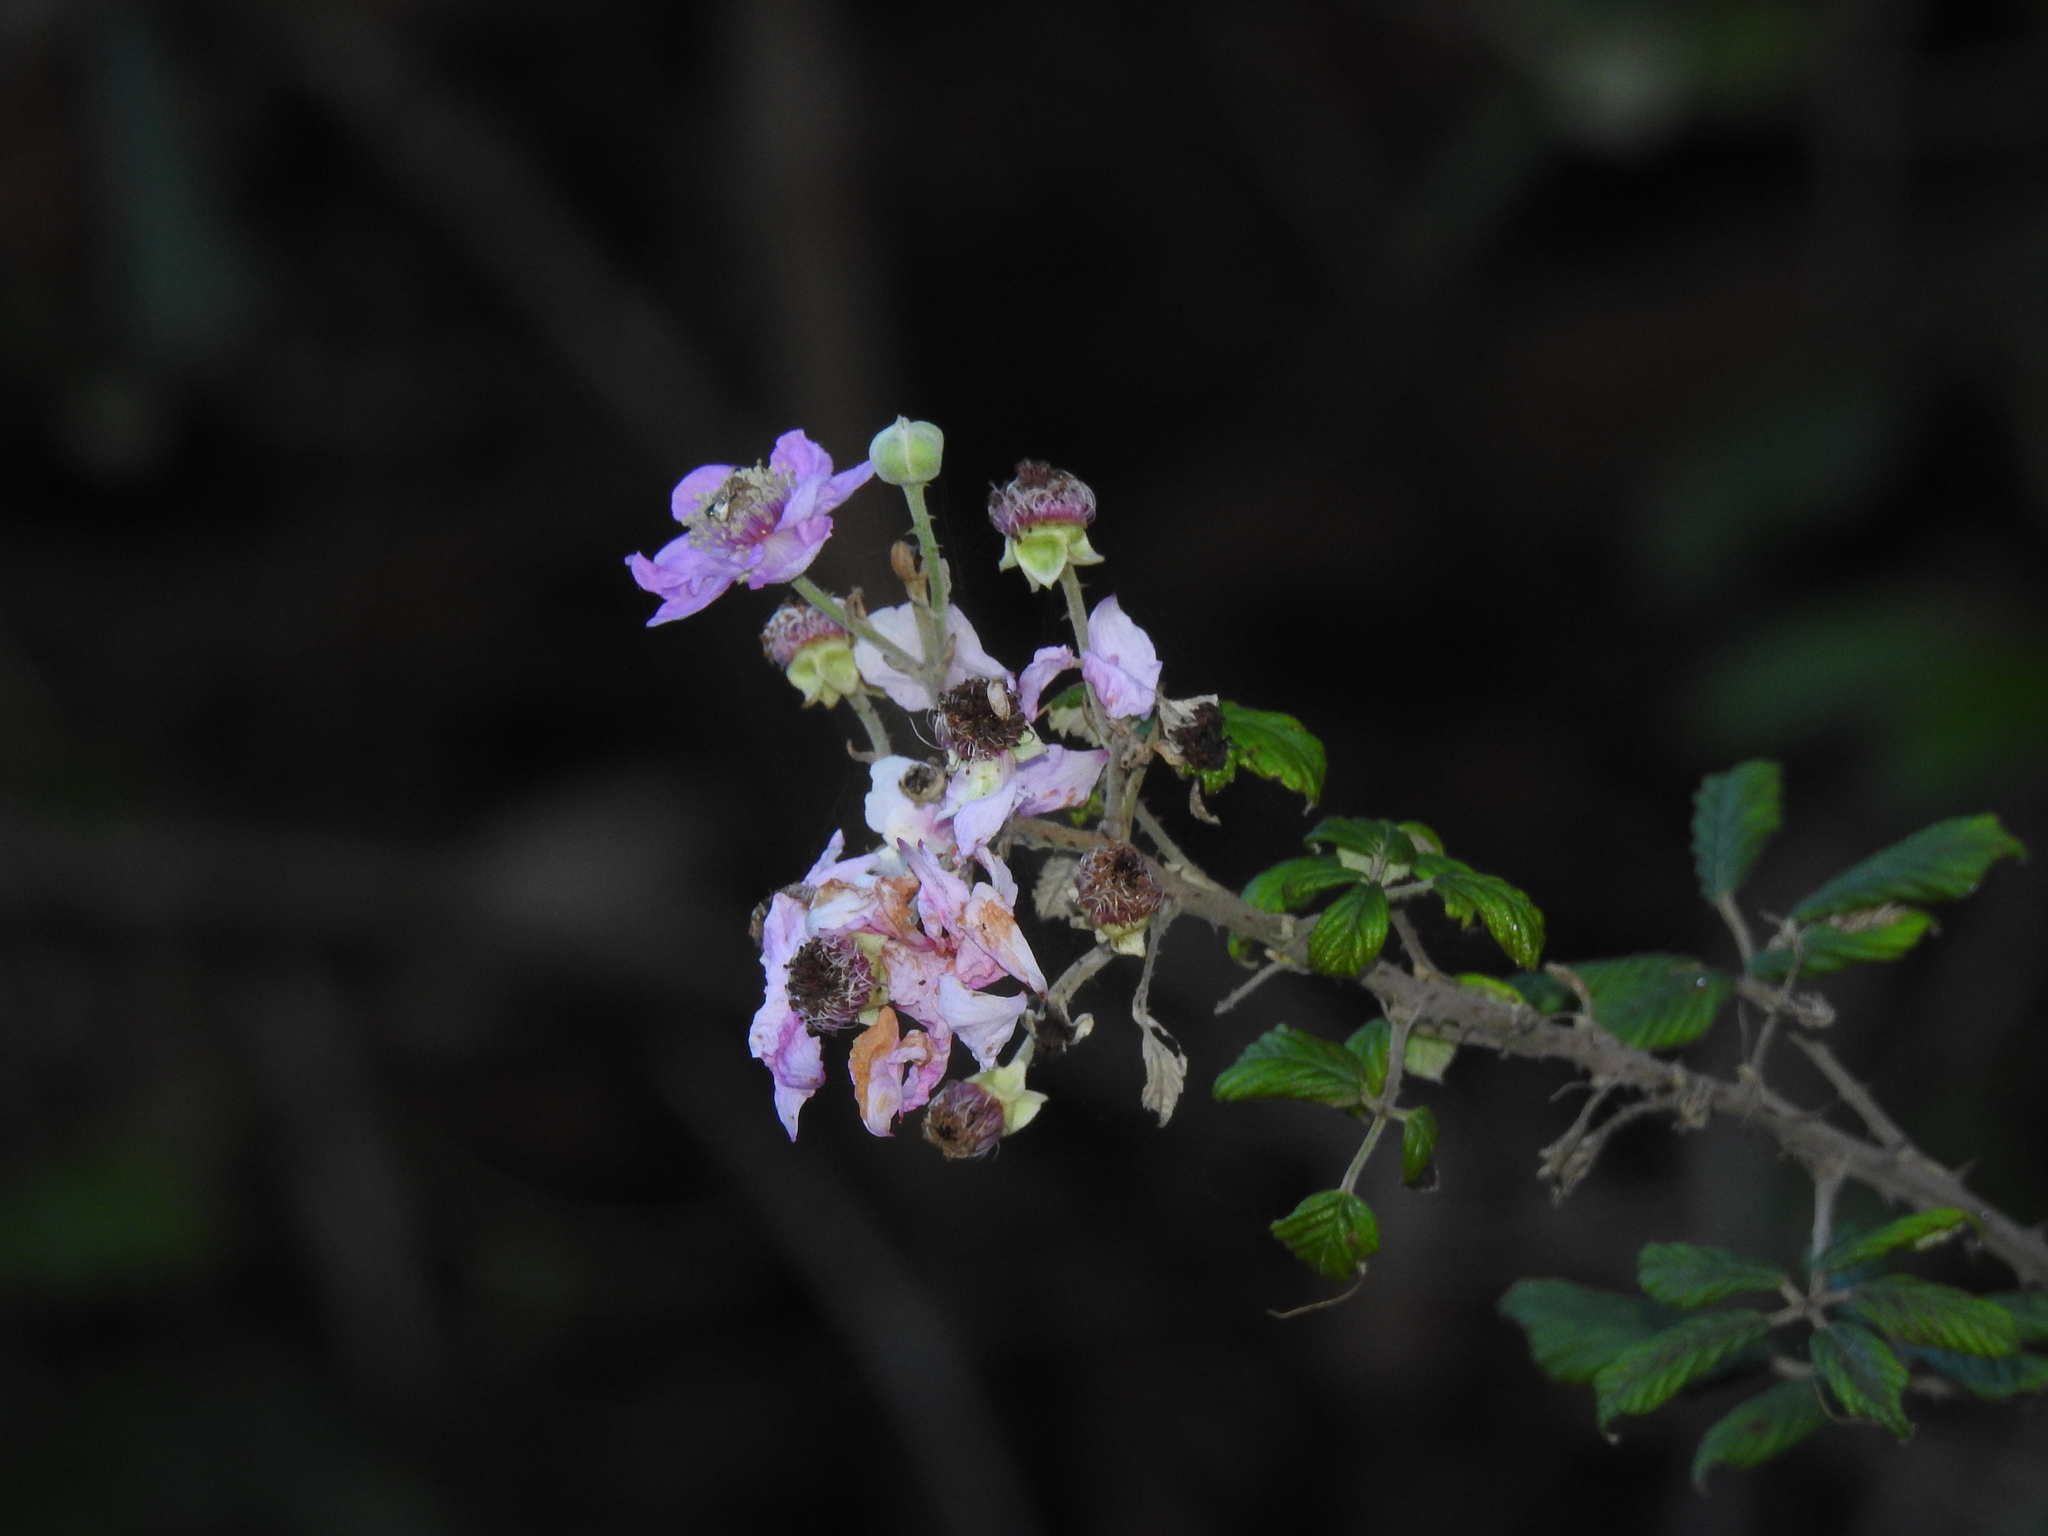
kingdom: Plantae
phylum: Tracheophyta
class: Magnoliopsida
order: Rosales
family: Rosaceae
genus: Rubus
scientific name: Rubus ulmifolius
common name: Elmleaf blackberry
